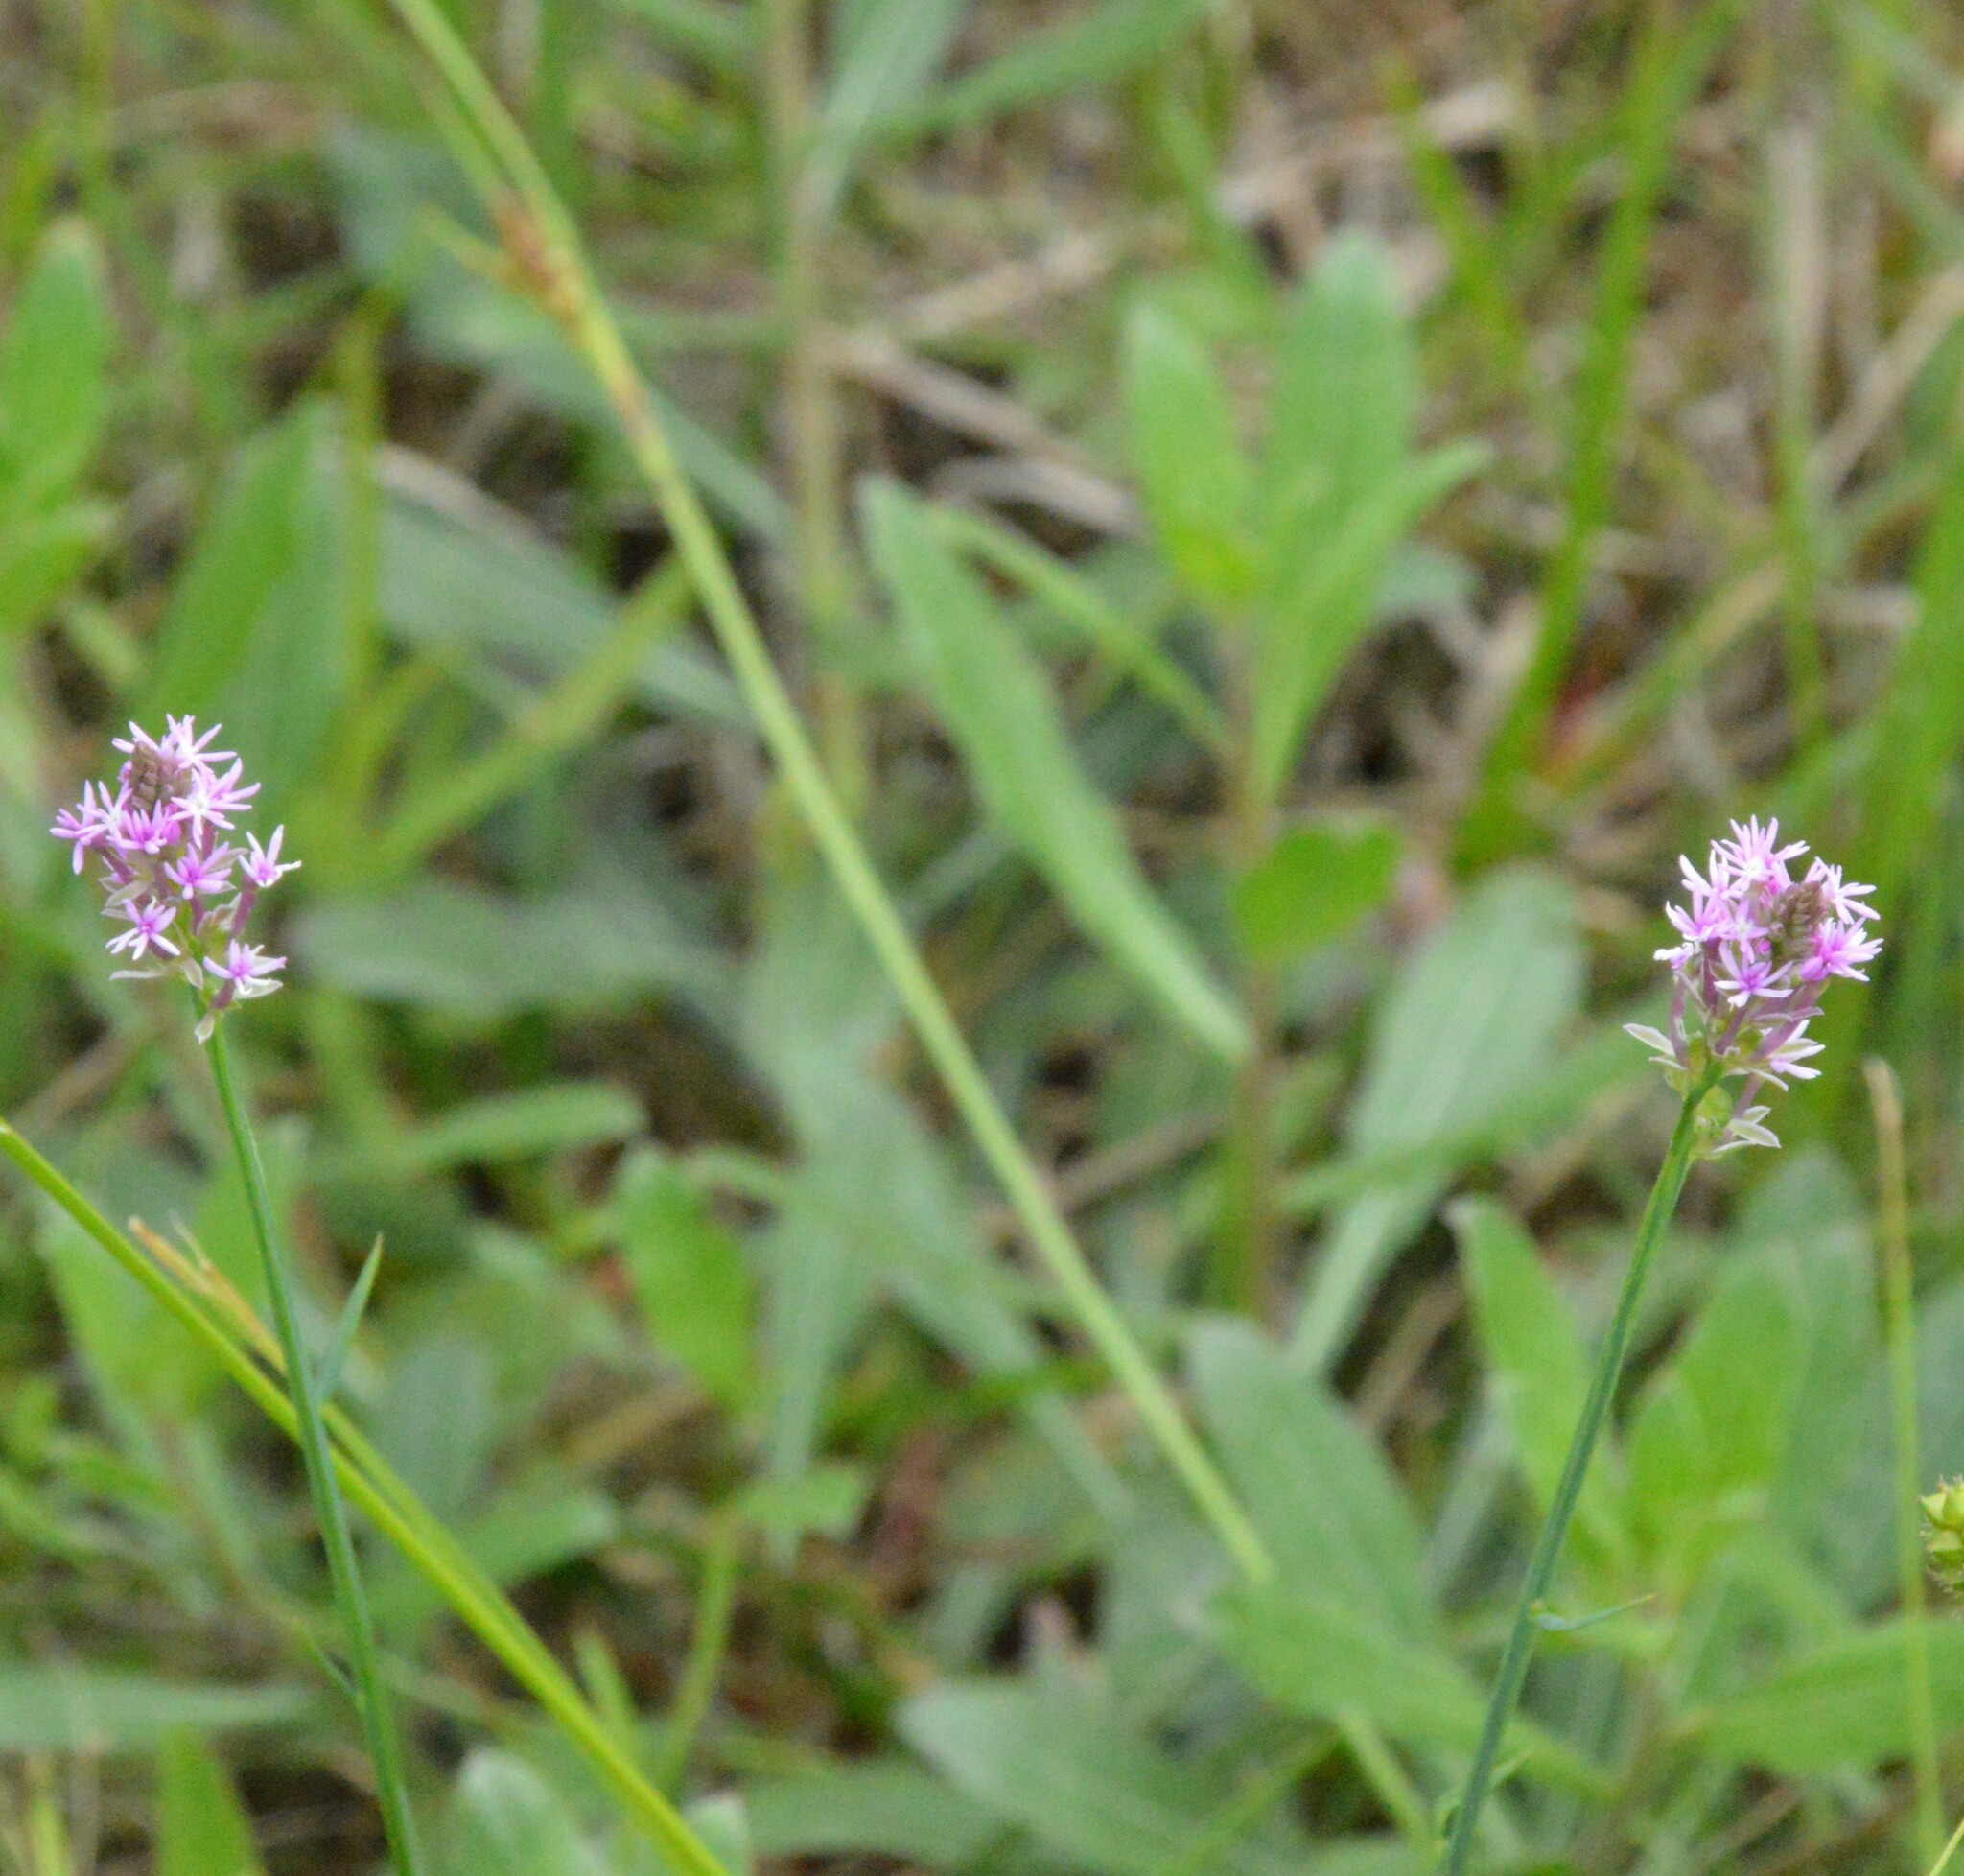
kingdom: Plantae
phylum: Tracheophyta
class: Magnoliopsida
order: Fabales
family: Polygalaceae
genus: Polygala
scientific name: Polygala incarnata
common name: Pink milkwort
